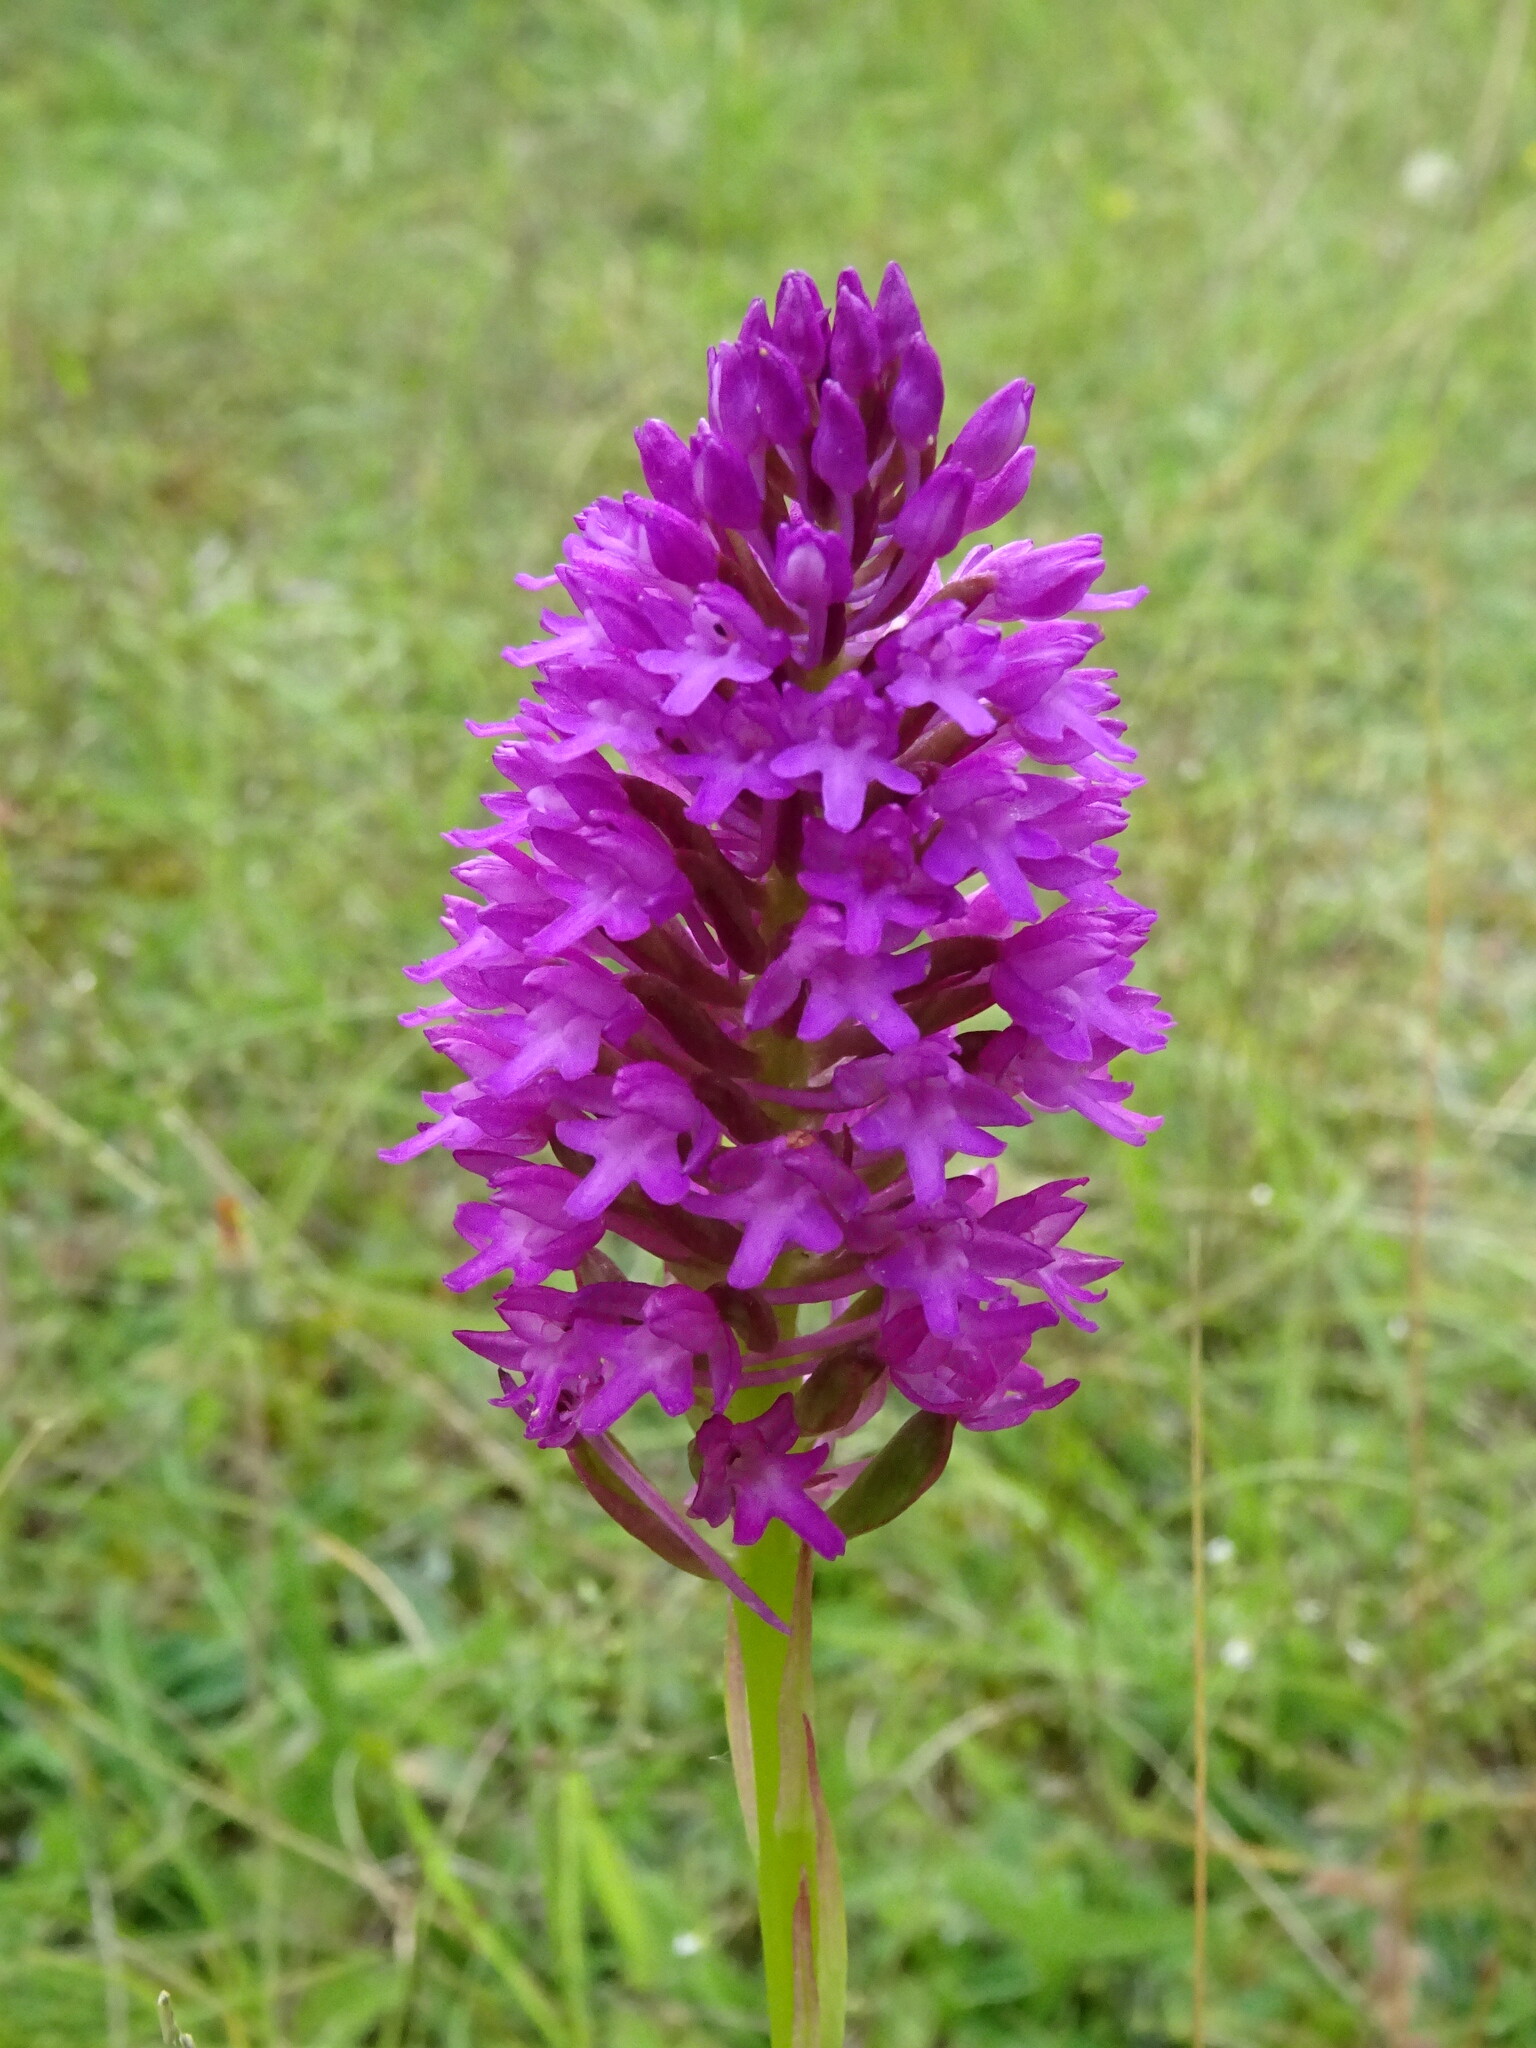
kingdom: Plantae
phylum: Tracheophyta
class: Liliopsida
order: Asparagales
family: Orchidaceae
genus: Anacamptis
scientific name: Anacamptis pyramidalis
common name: Pyramidal orchid
